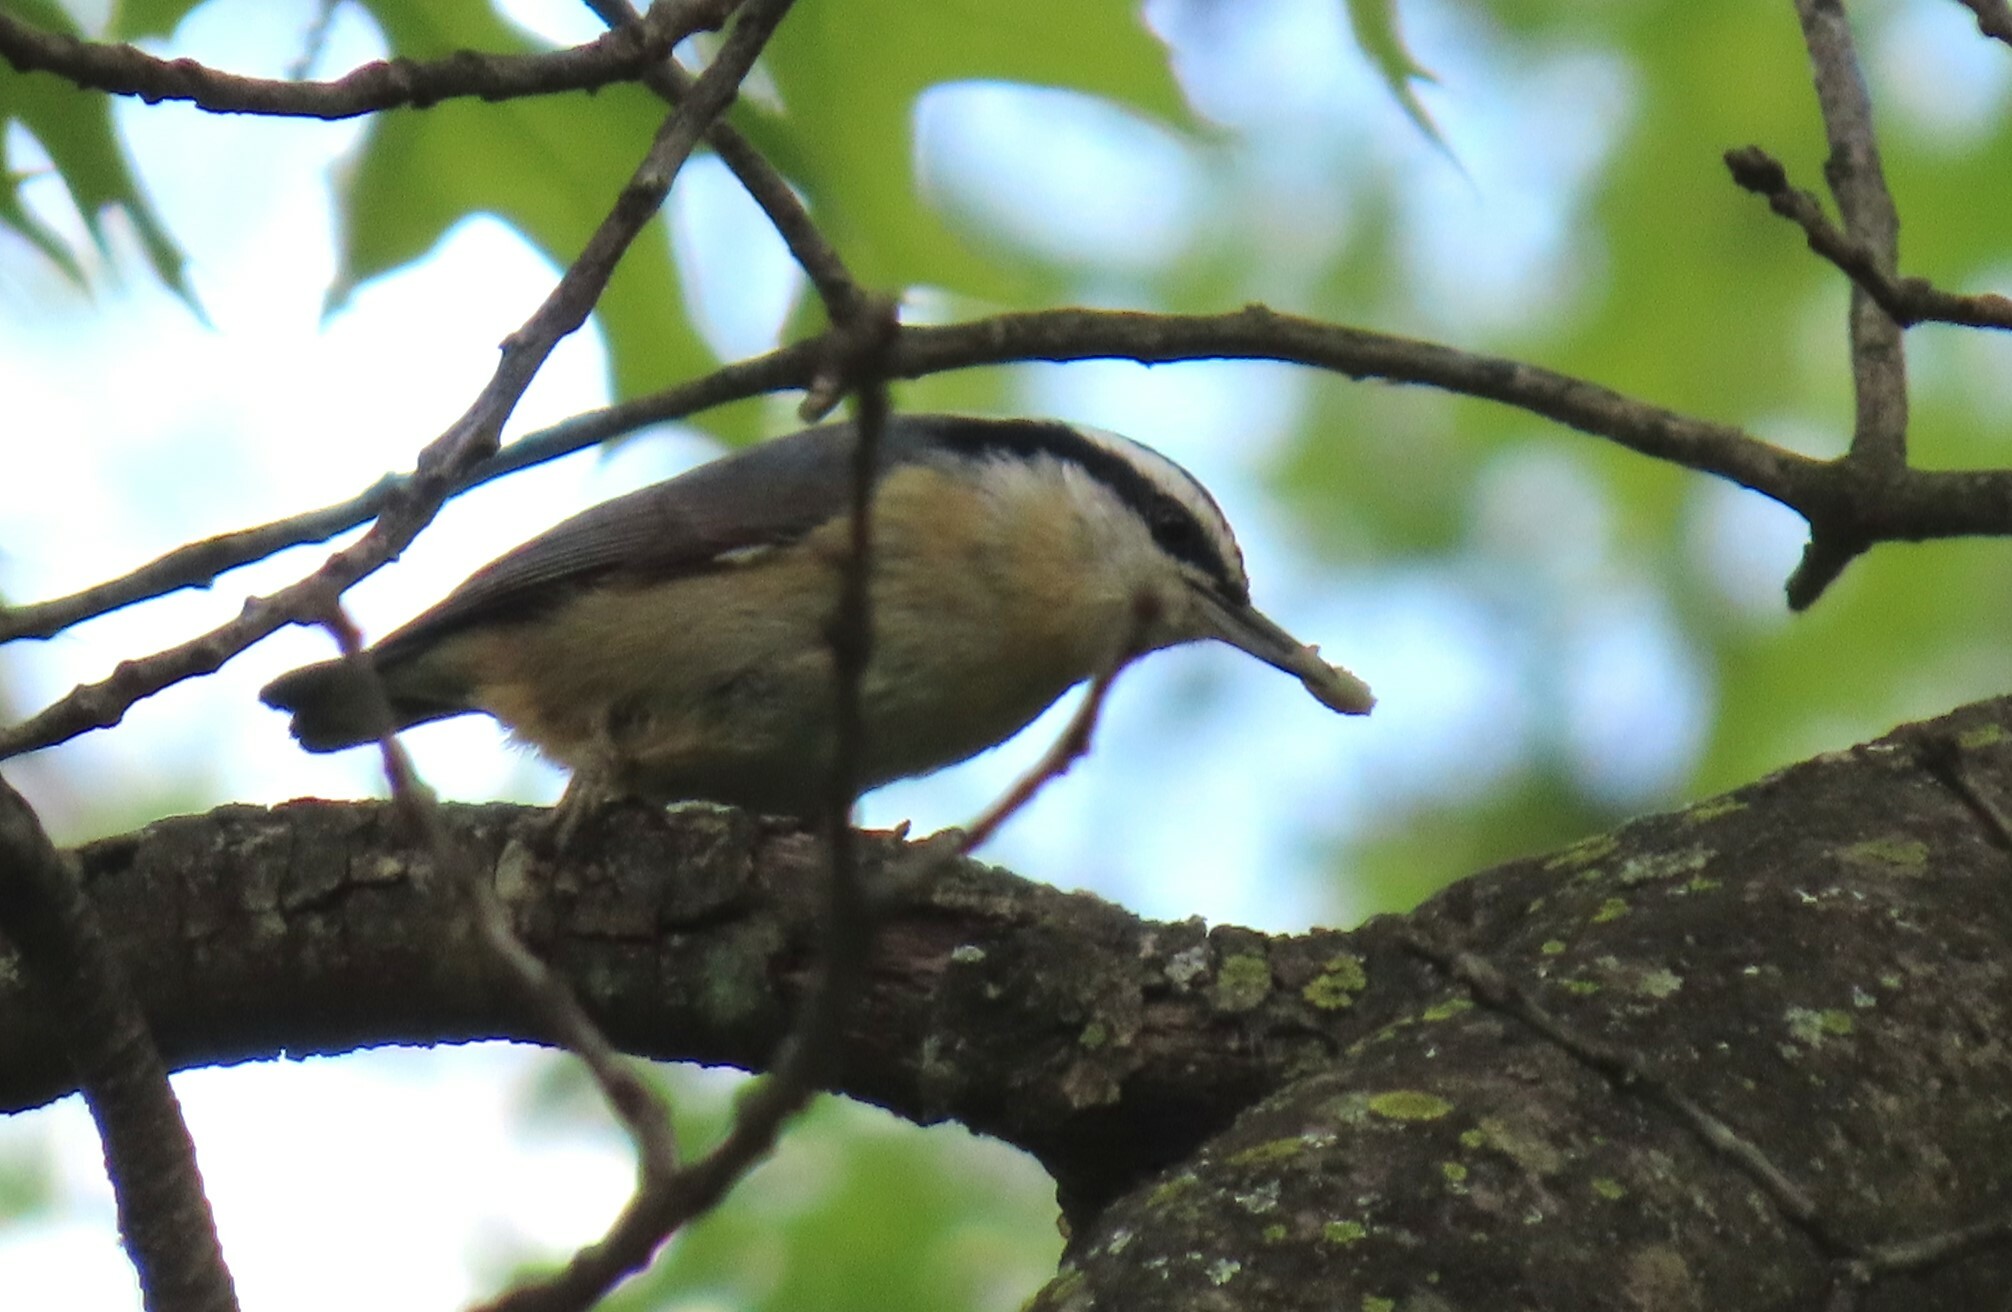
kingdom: Animalia
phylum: Chordata
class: Aves
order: Passeriformes
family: Sittidae
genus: Sitta
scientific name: Sitta canadensis
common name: Red-breasted nuthatch
